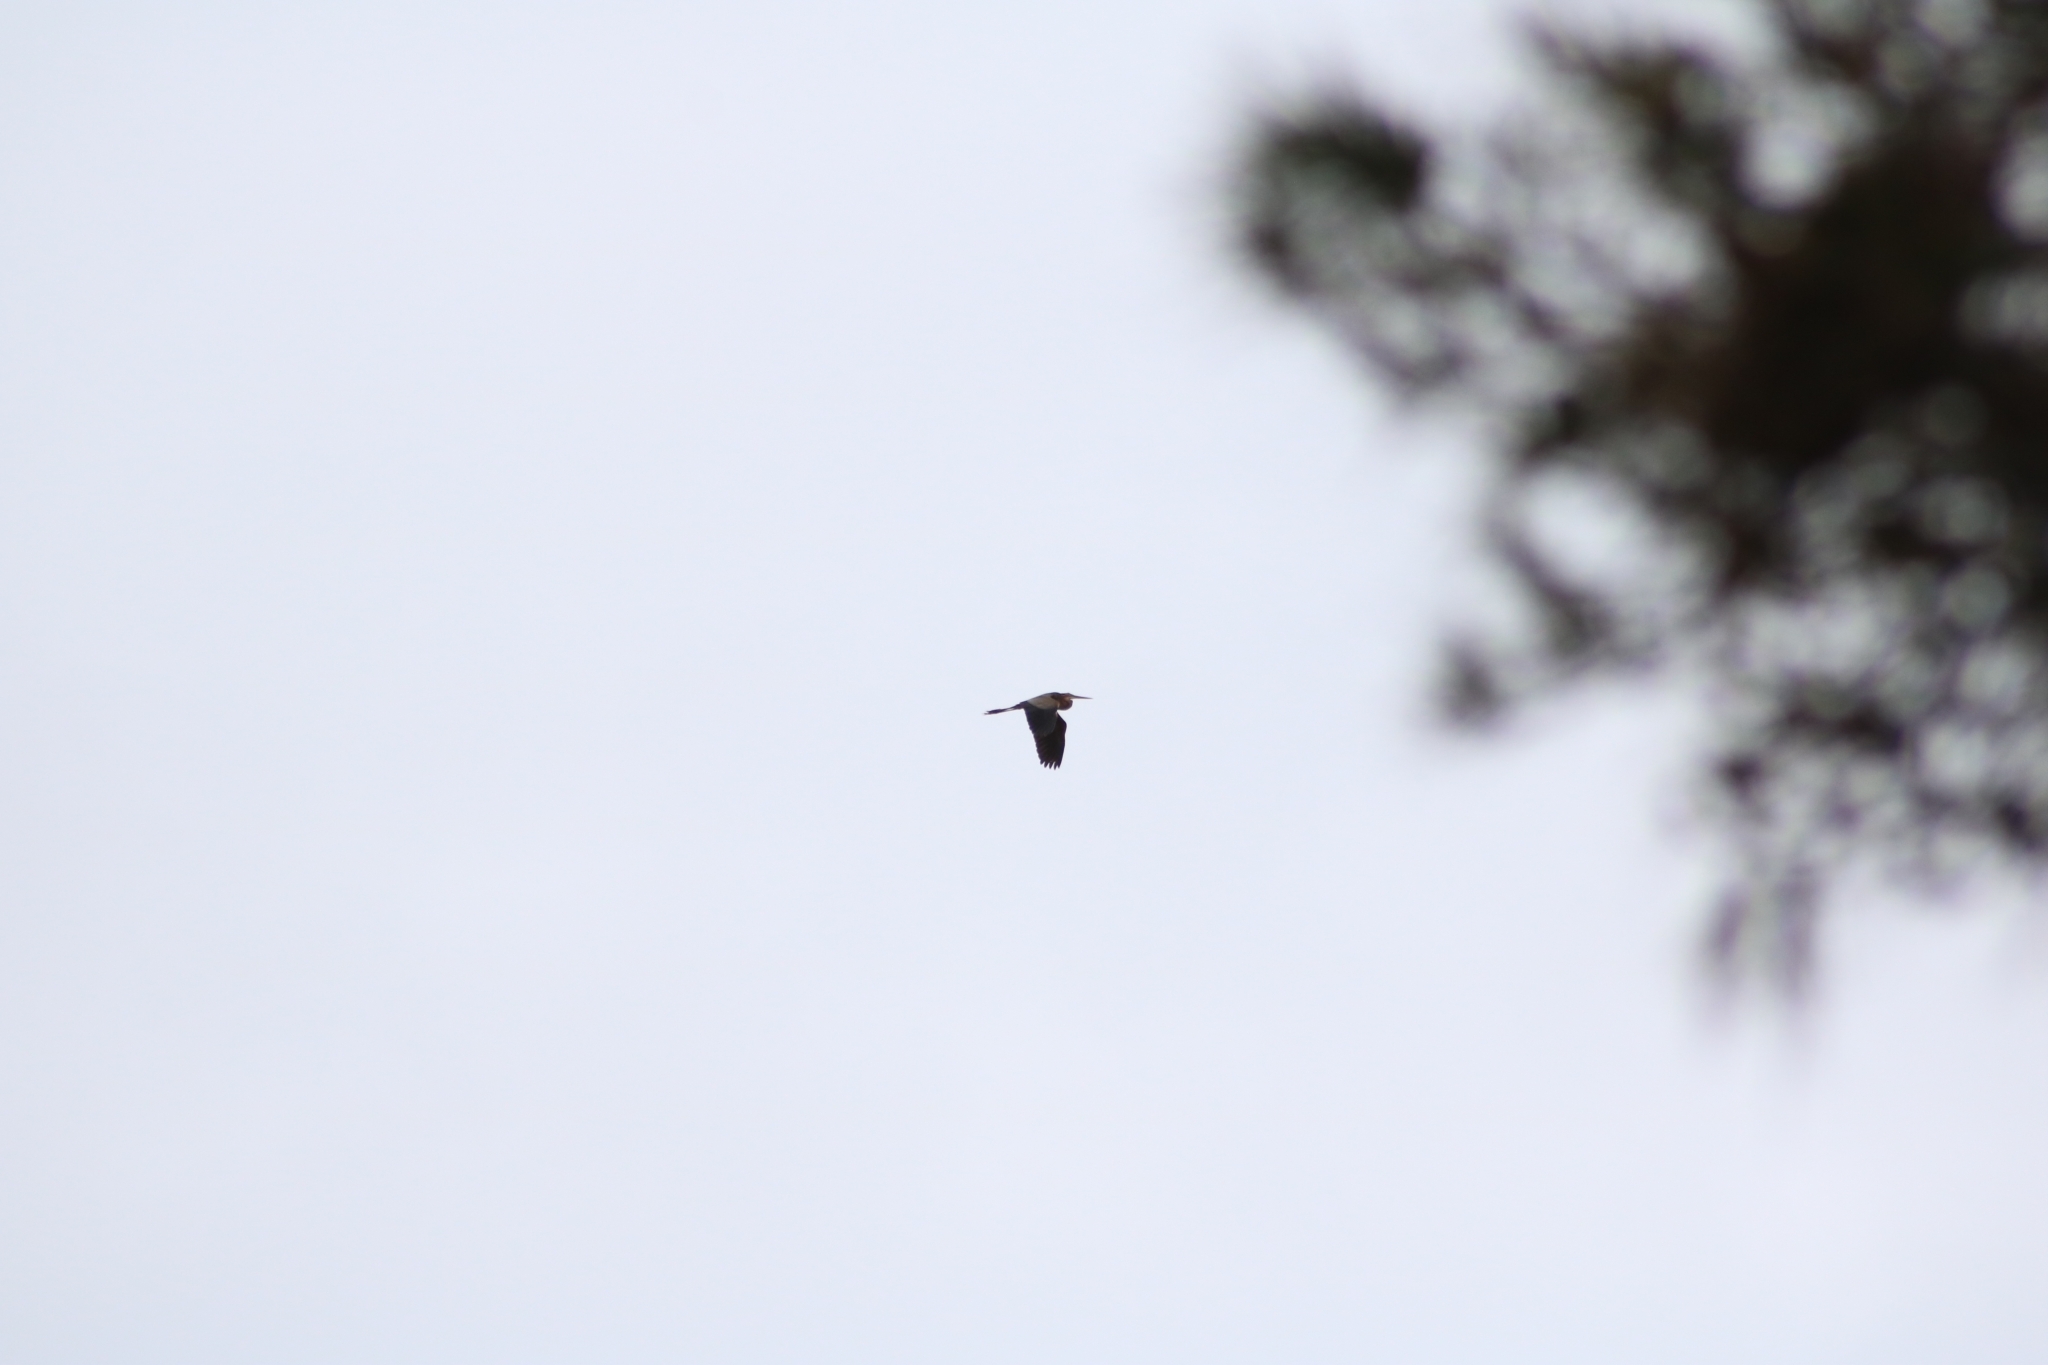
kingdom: Animalia
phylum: Chordata
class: Aves
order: Pelecaniformes
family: Ardeidae
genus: Ardea
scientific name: Ardea cinerea
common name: Grey heron
